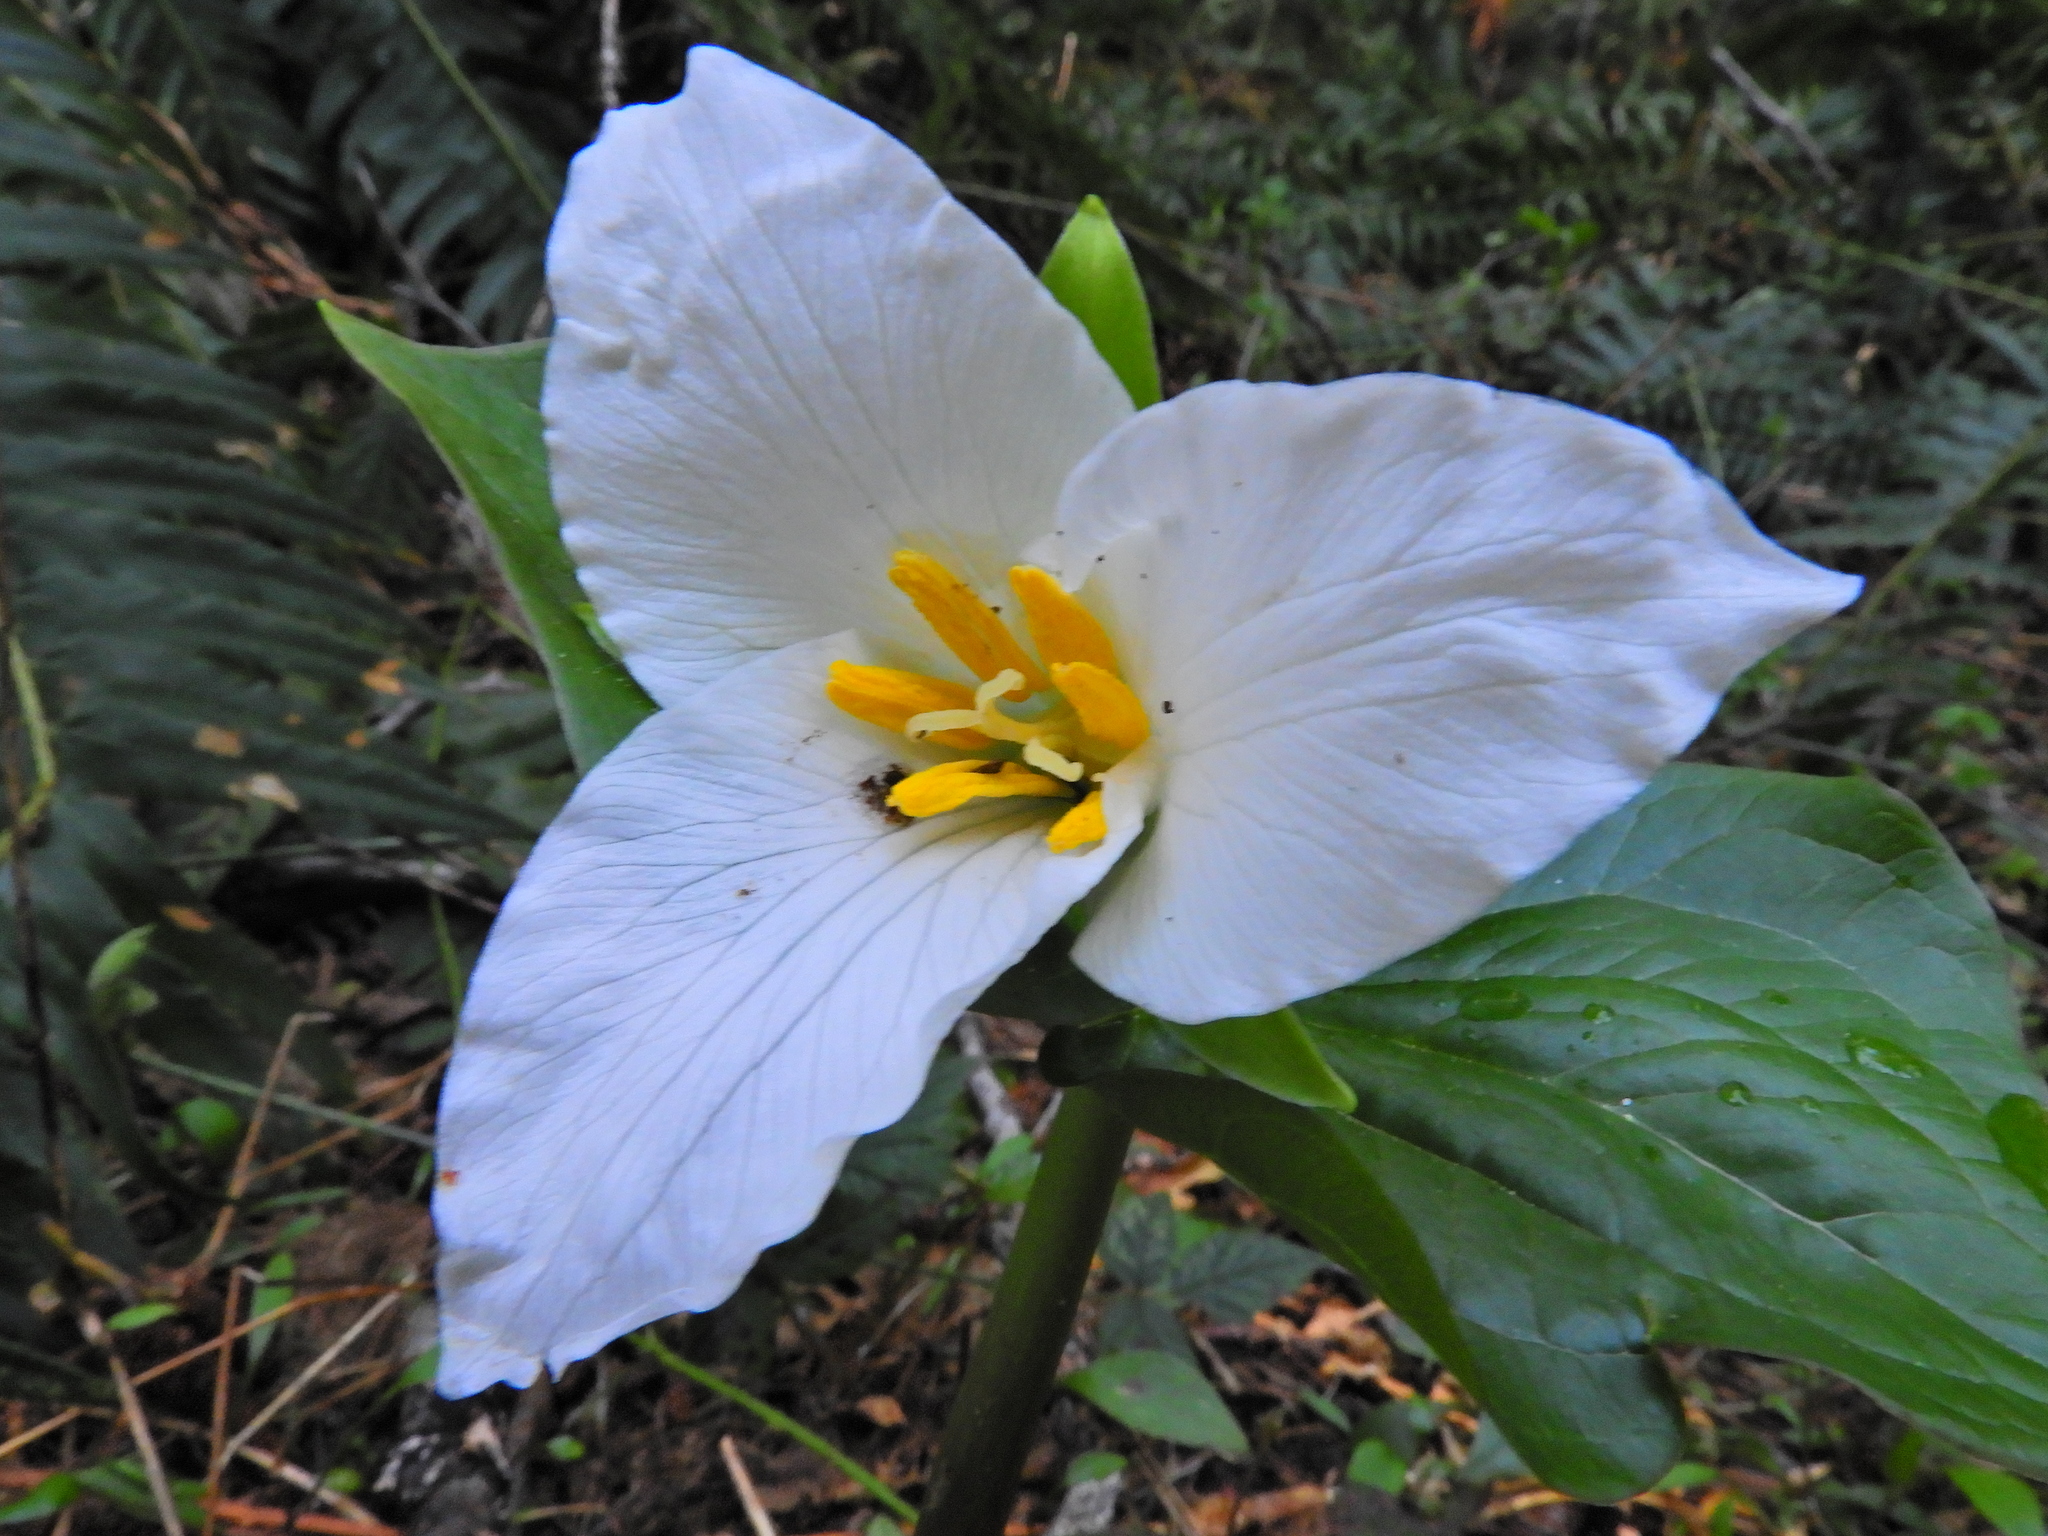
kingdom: Plantae
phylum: Tracheophyta
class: Liliopsida
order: Liliales
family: Melanthiaceae
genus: Trillium
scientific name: Trillium ovatum
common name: Pacific trillium
